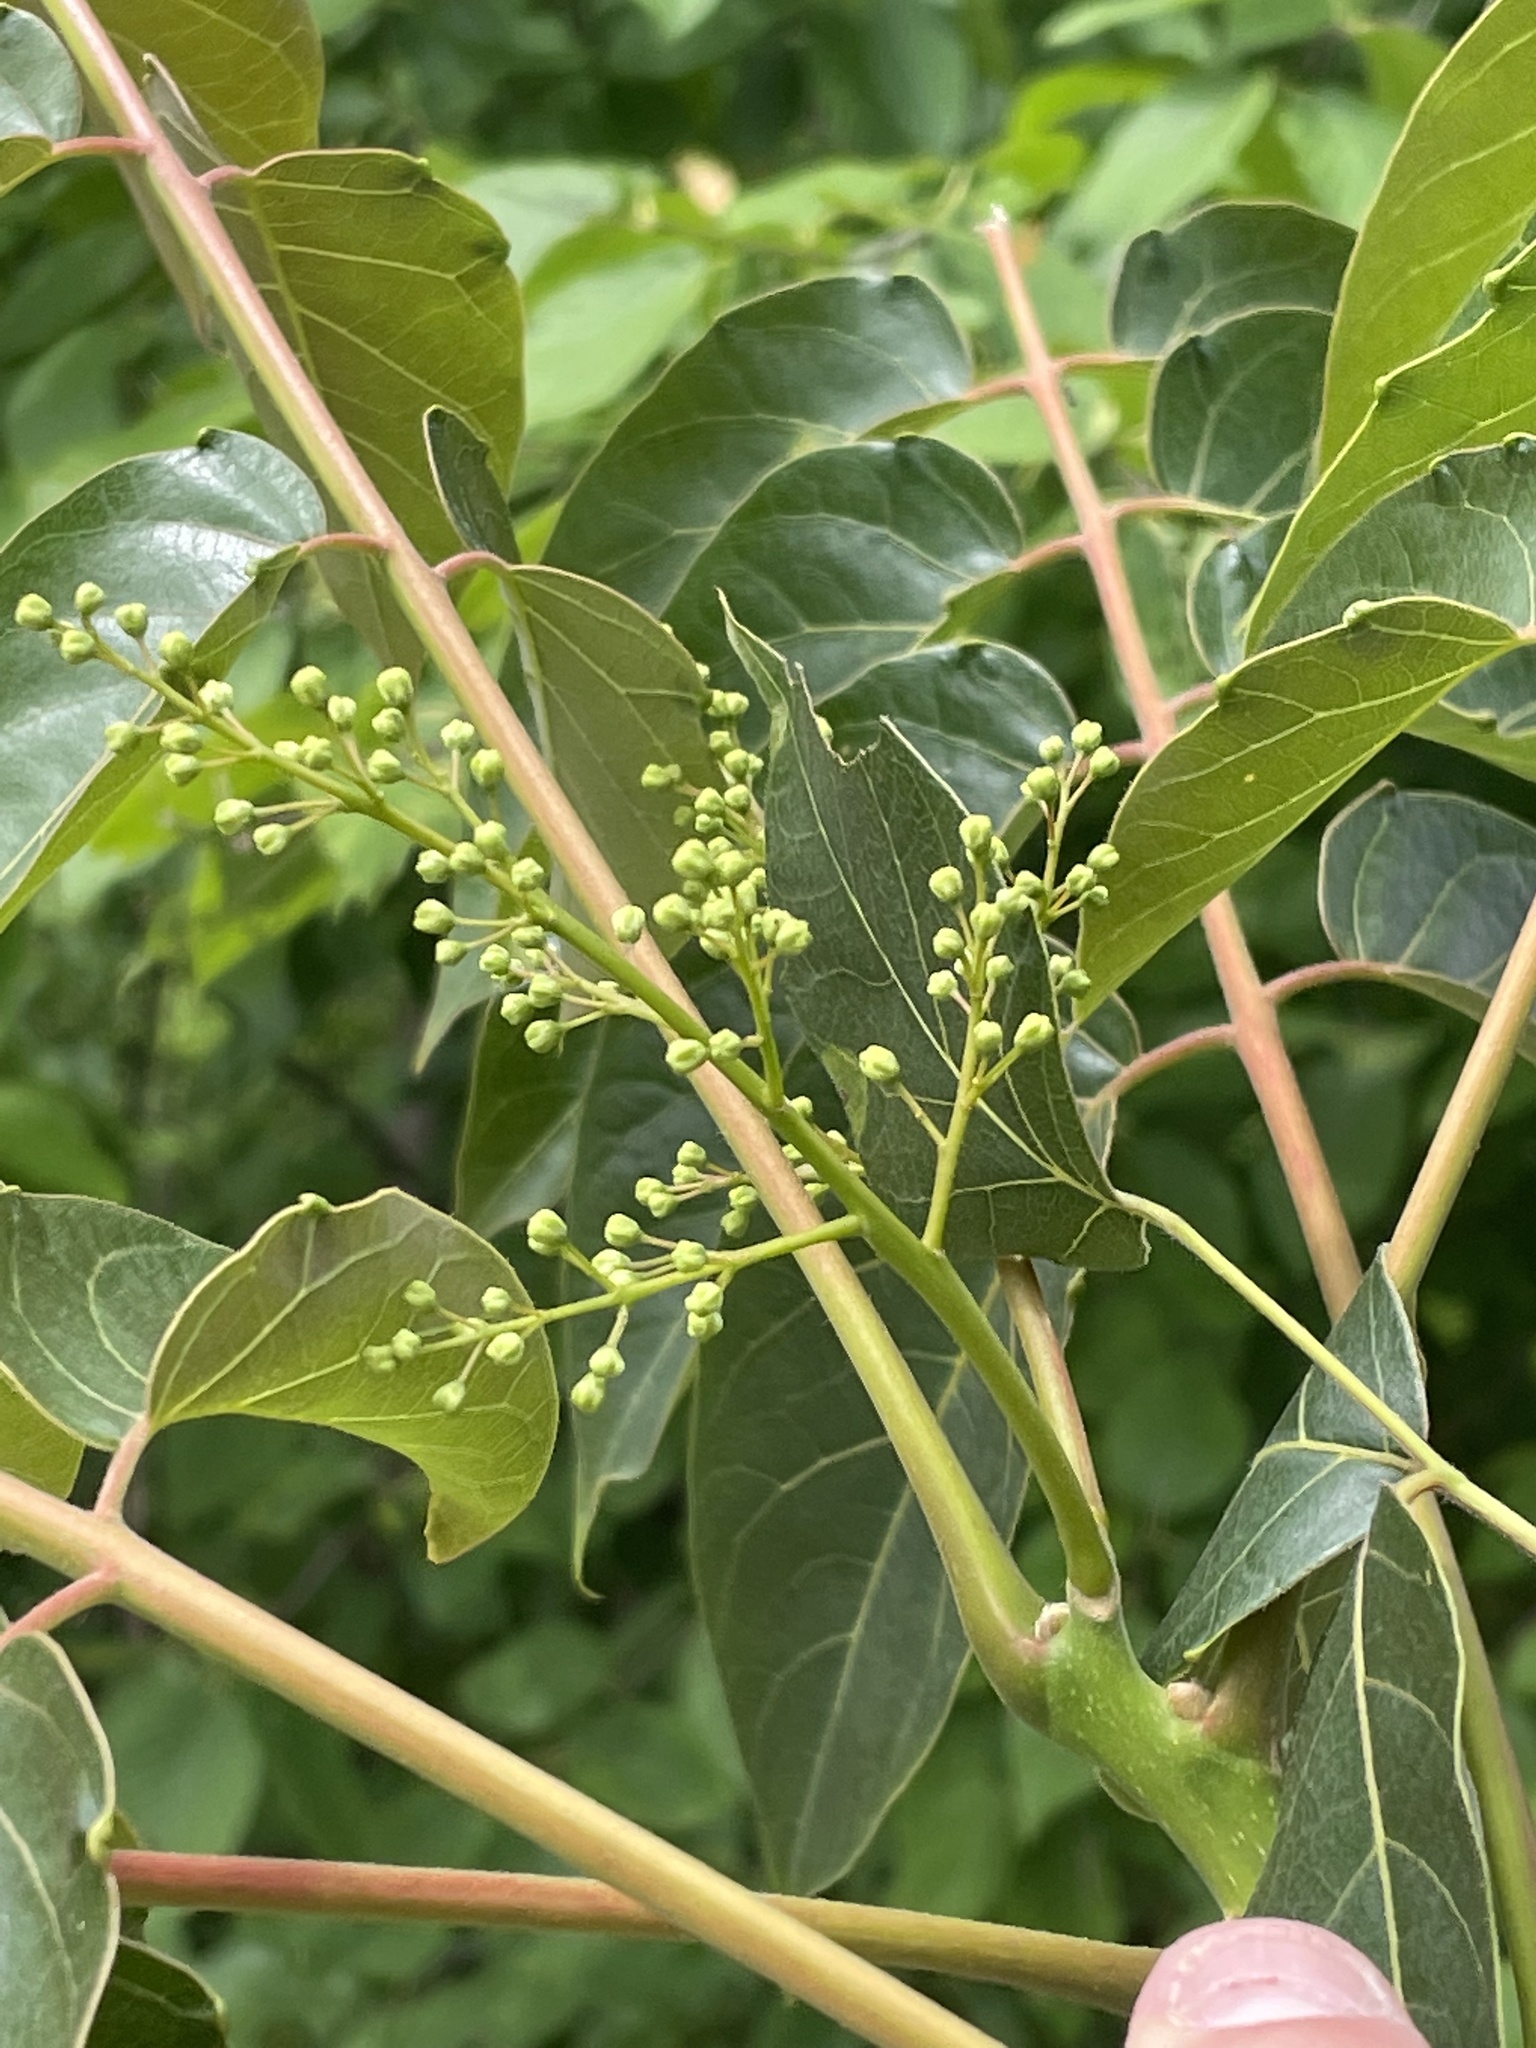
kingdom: Plantae
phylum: Tracheophyta
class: Magnoliopsida
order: Sapindales
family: Simaroubaceae
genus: Ailanthus
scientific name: Ailanthus altissima
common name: Tree-of-heaven
